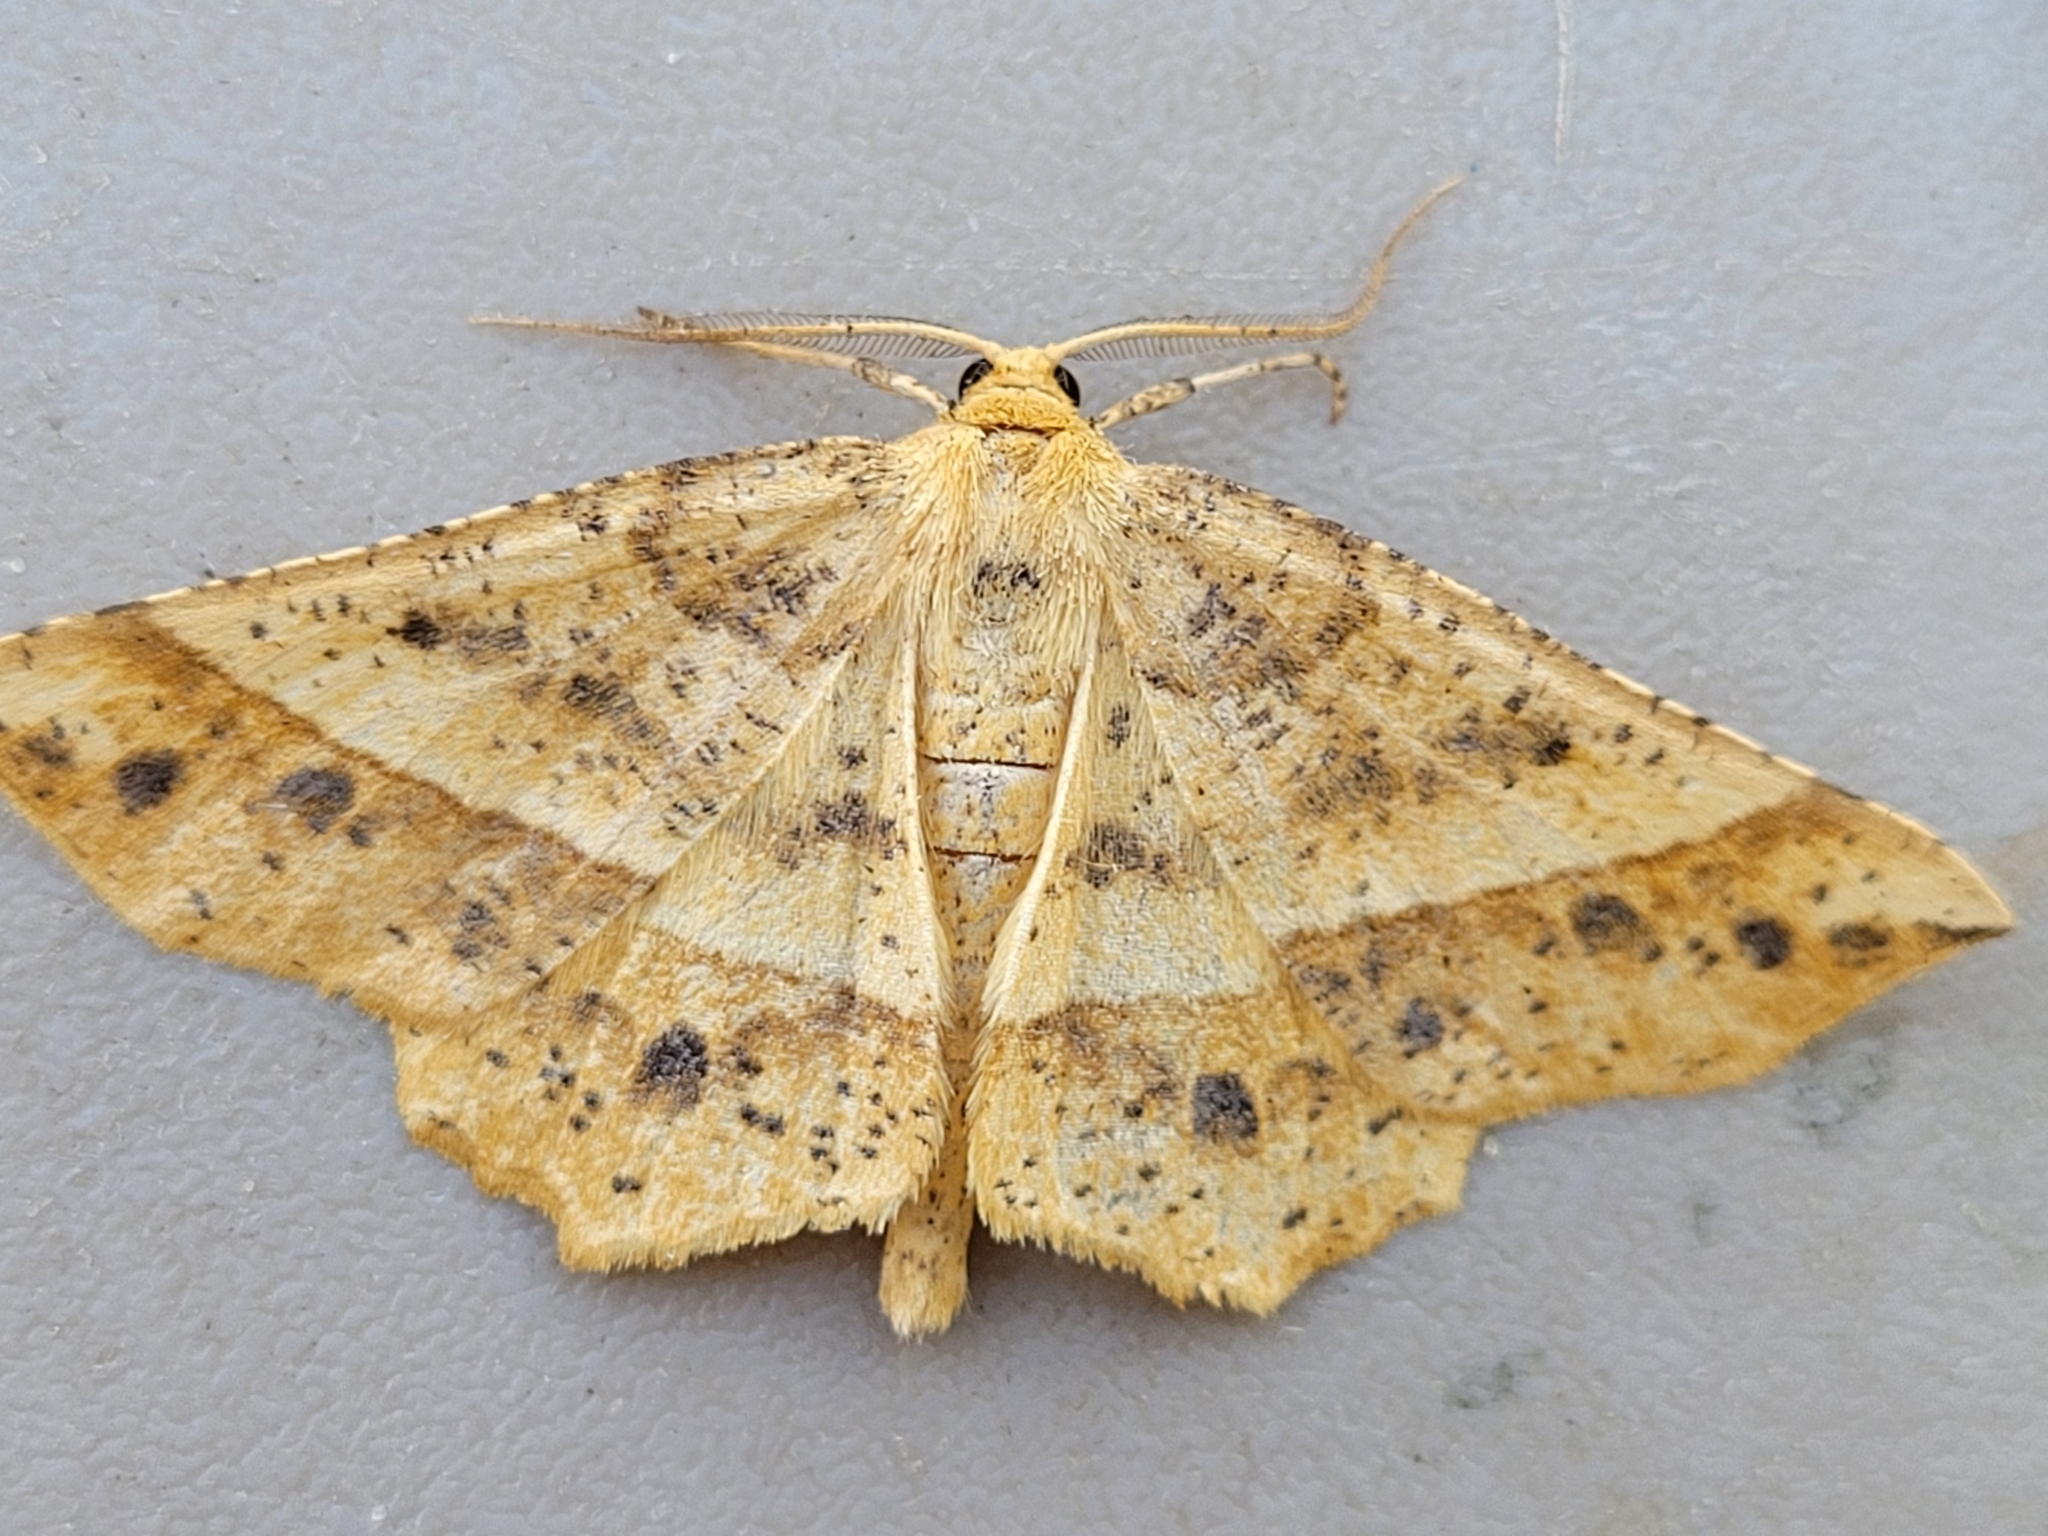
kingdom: Animalia
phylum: Arthropoda
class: Insecta
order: Lepidoptera
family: Geometridae
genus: Euchlaena
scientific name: Euchlaena tigrinaria
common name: Mottled euchlaena moth
